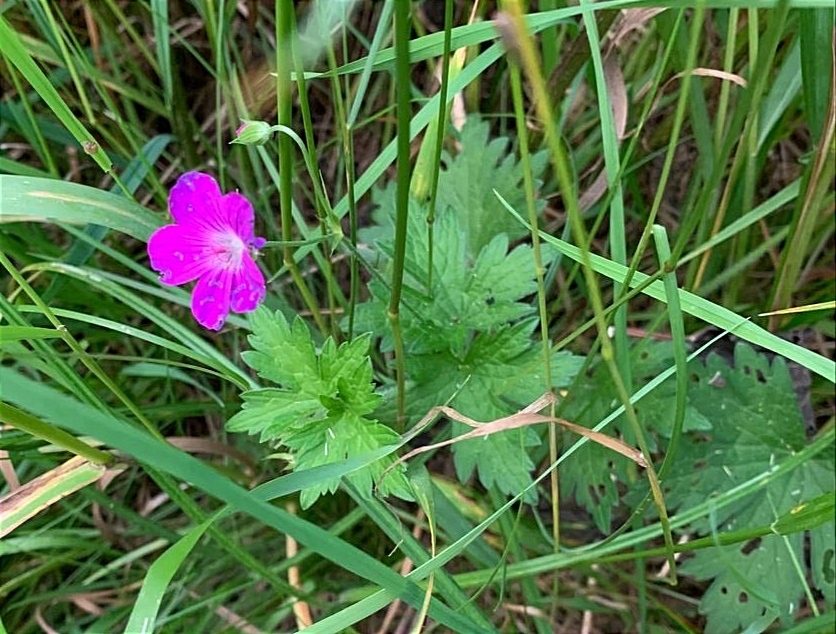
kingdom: Plantae
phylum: Tracheophyta
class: Magnoliopsida
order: Geraniales
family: Geraniaceae
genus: Geranium
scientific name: Geranium palustre
